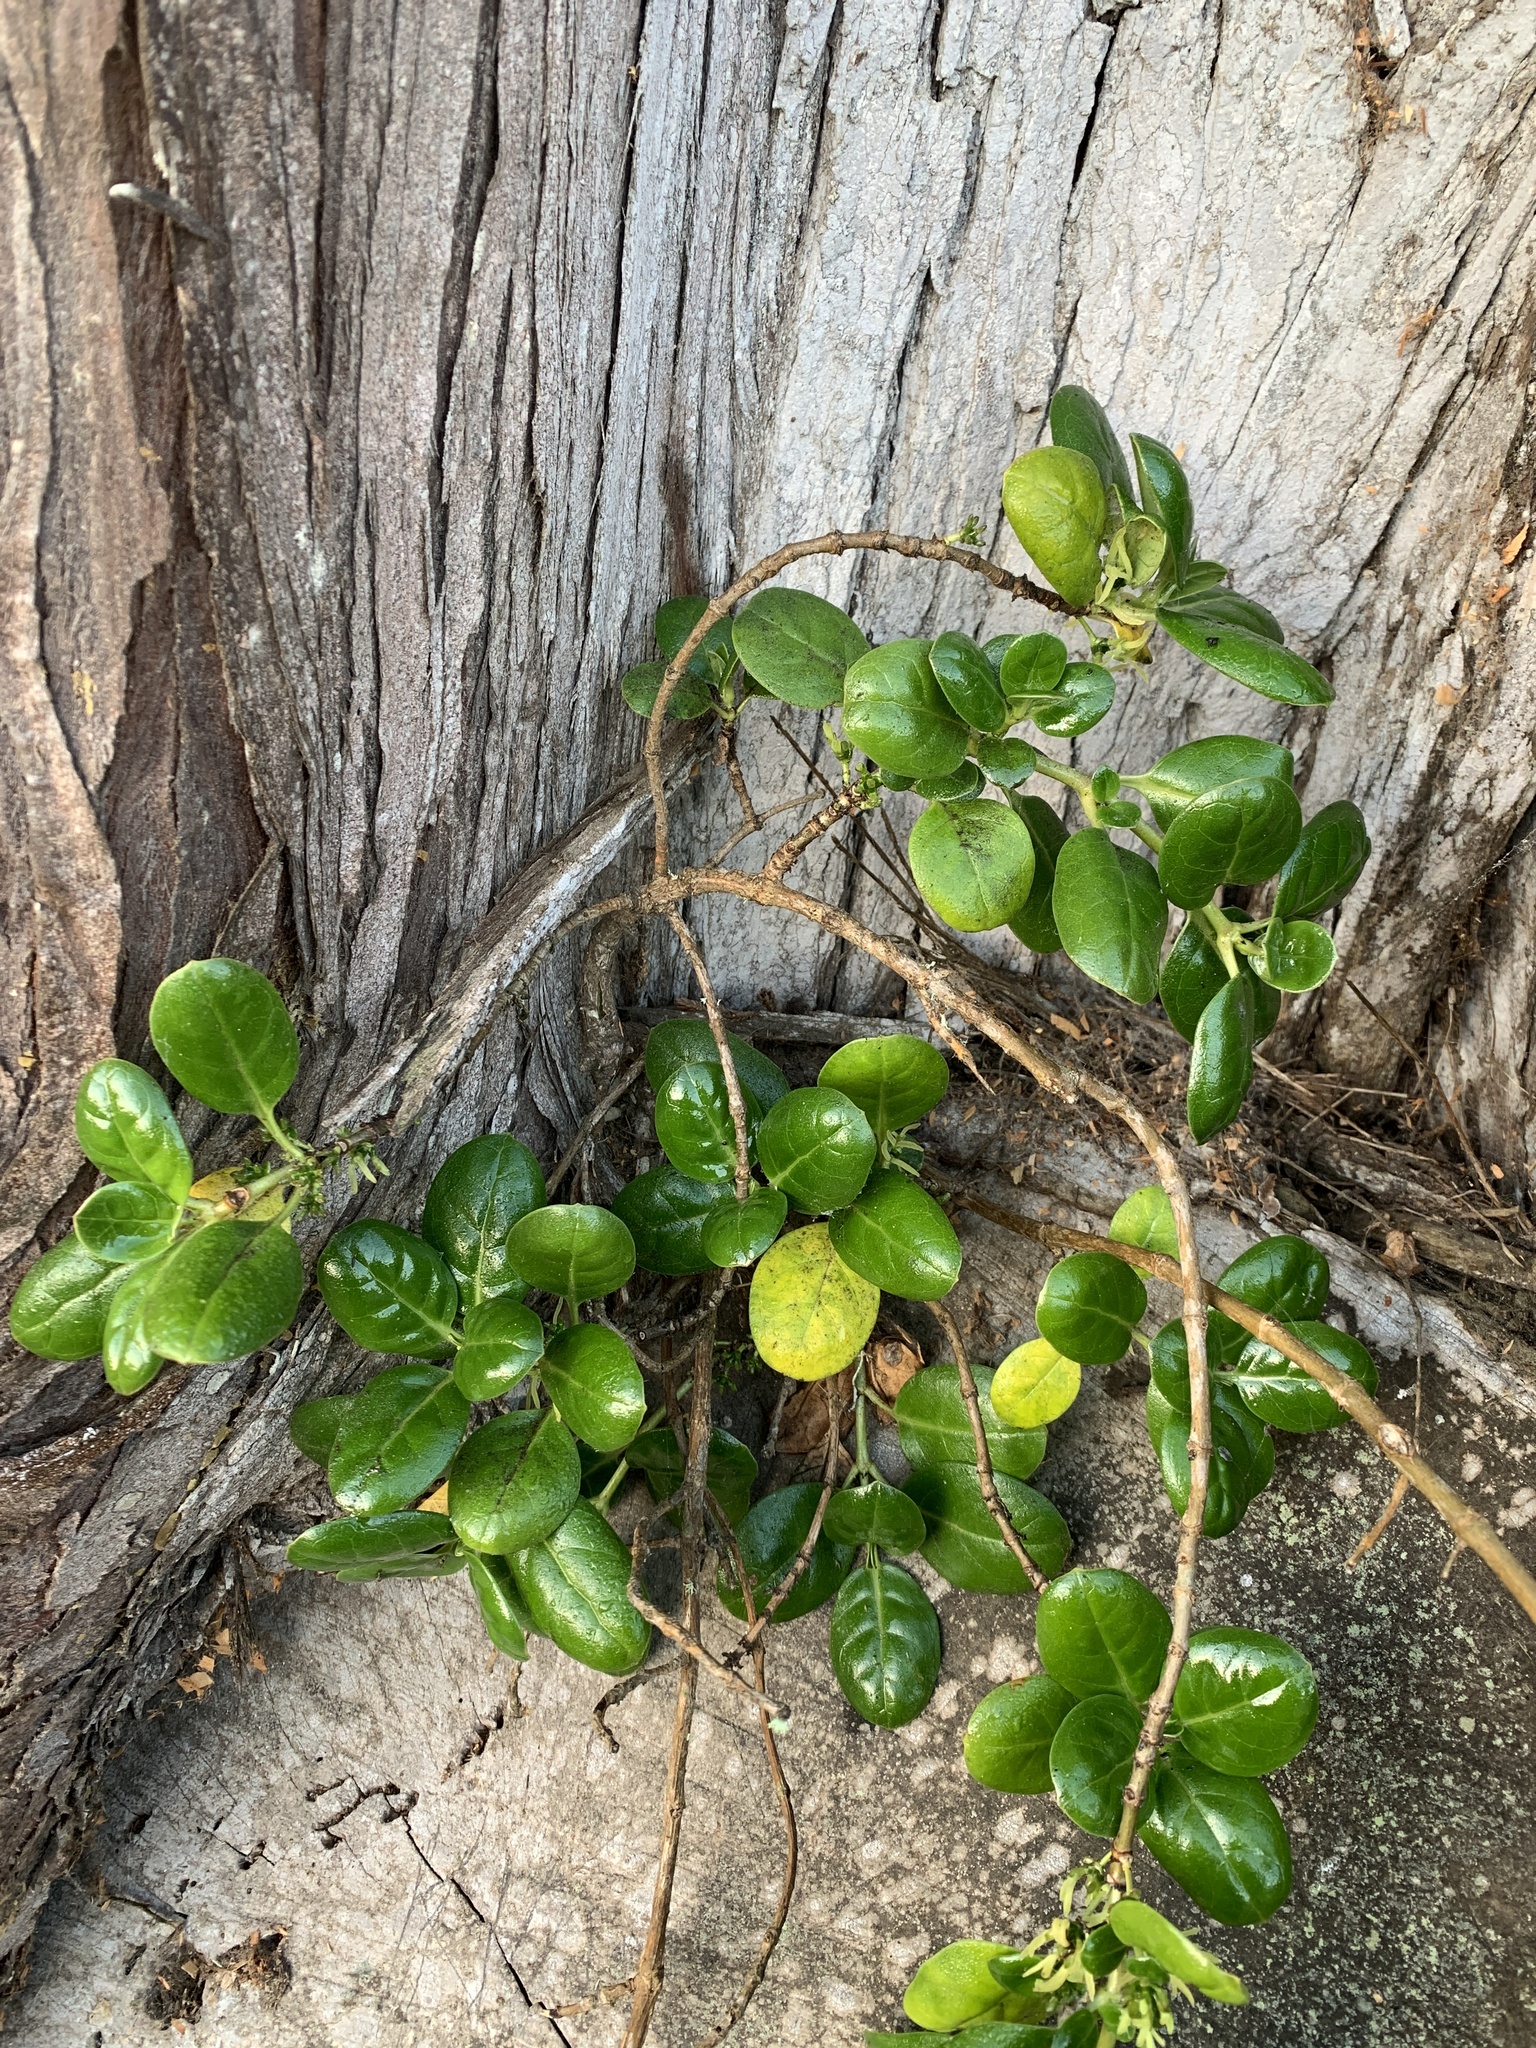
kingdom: Plantae
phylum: Tracheophyta
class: Magnoliopsida
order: Gentianales
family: Rubiaceae
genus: Coprosma
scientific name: Coprosma repens
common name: Tree bedstraw
